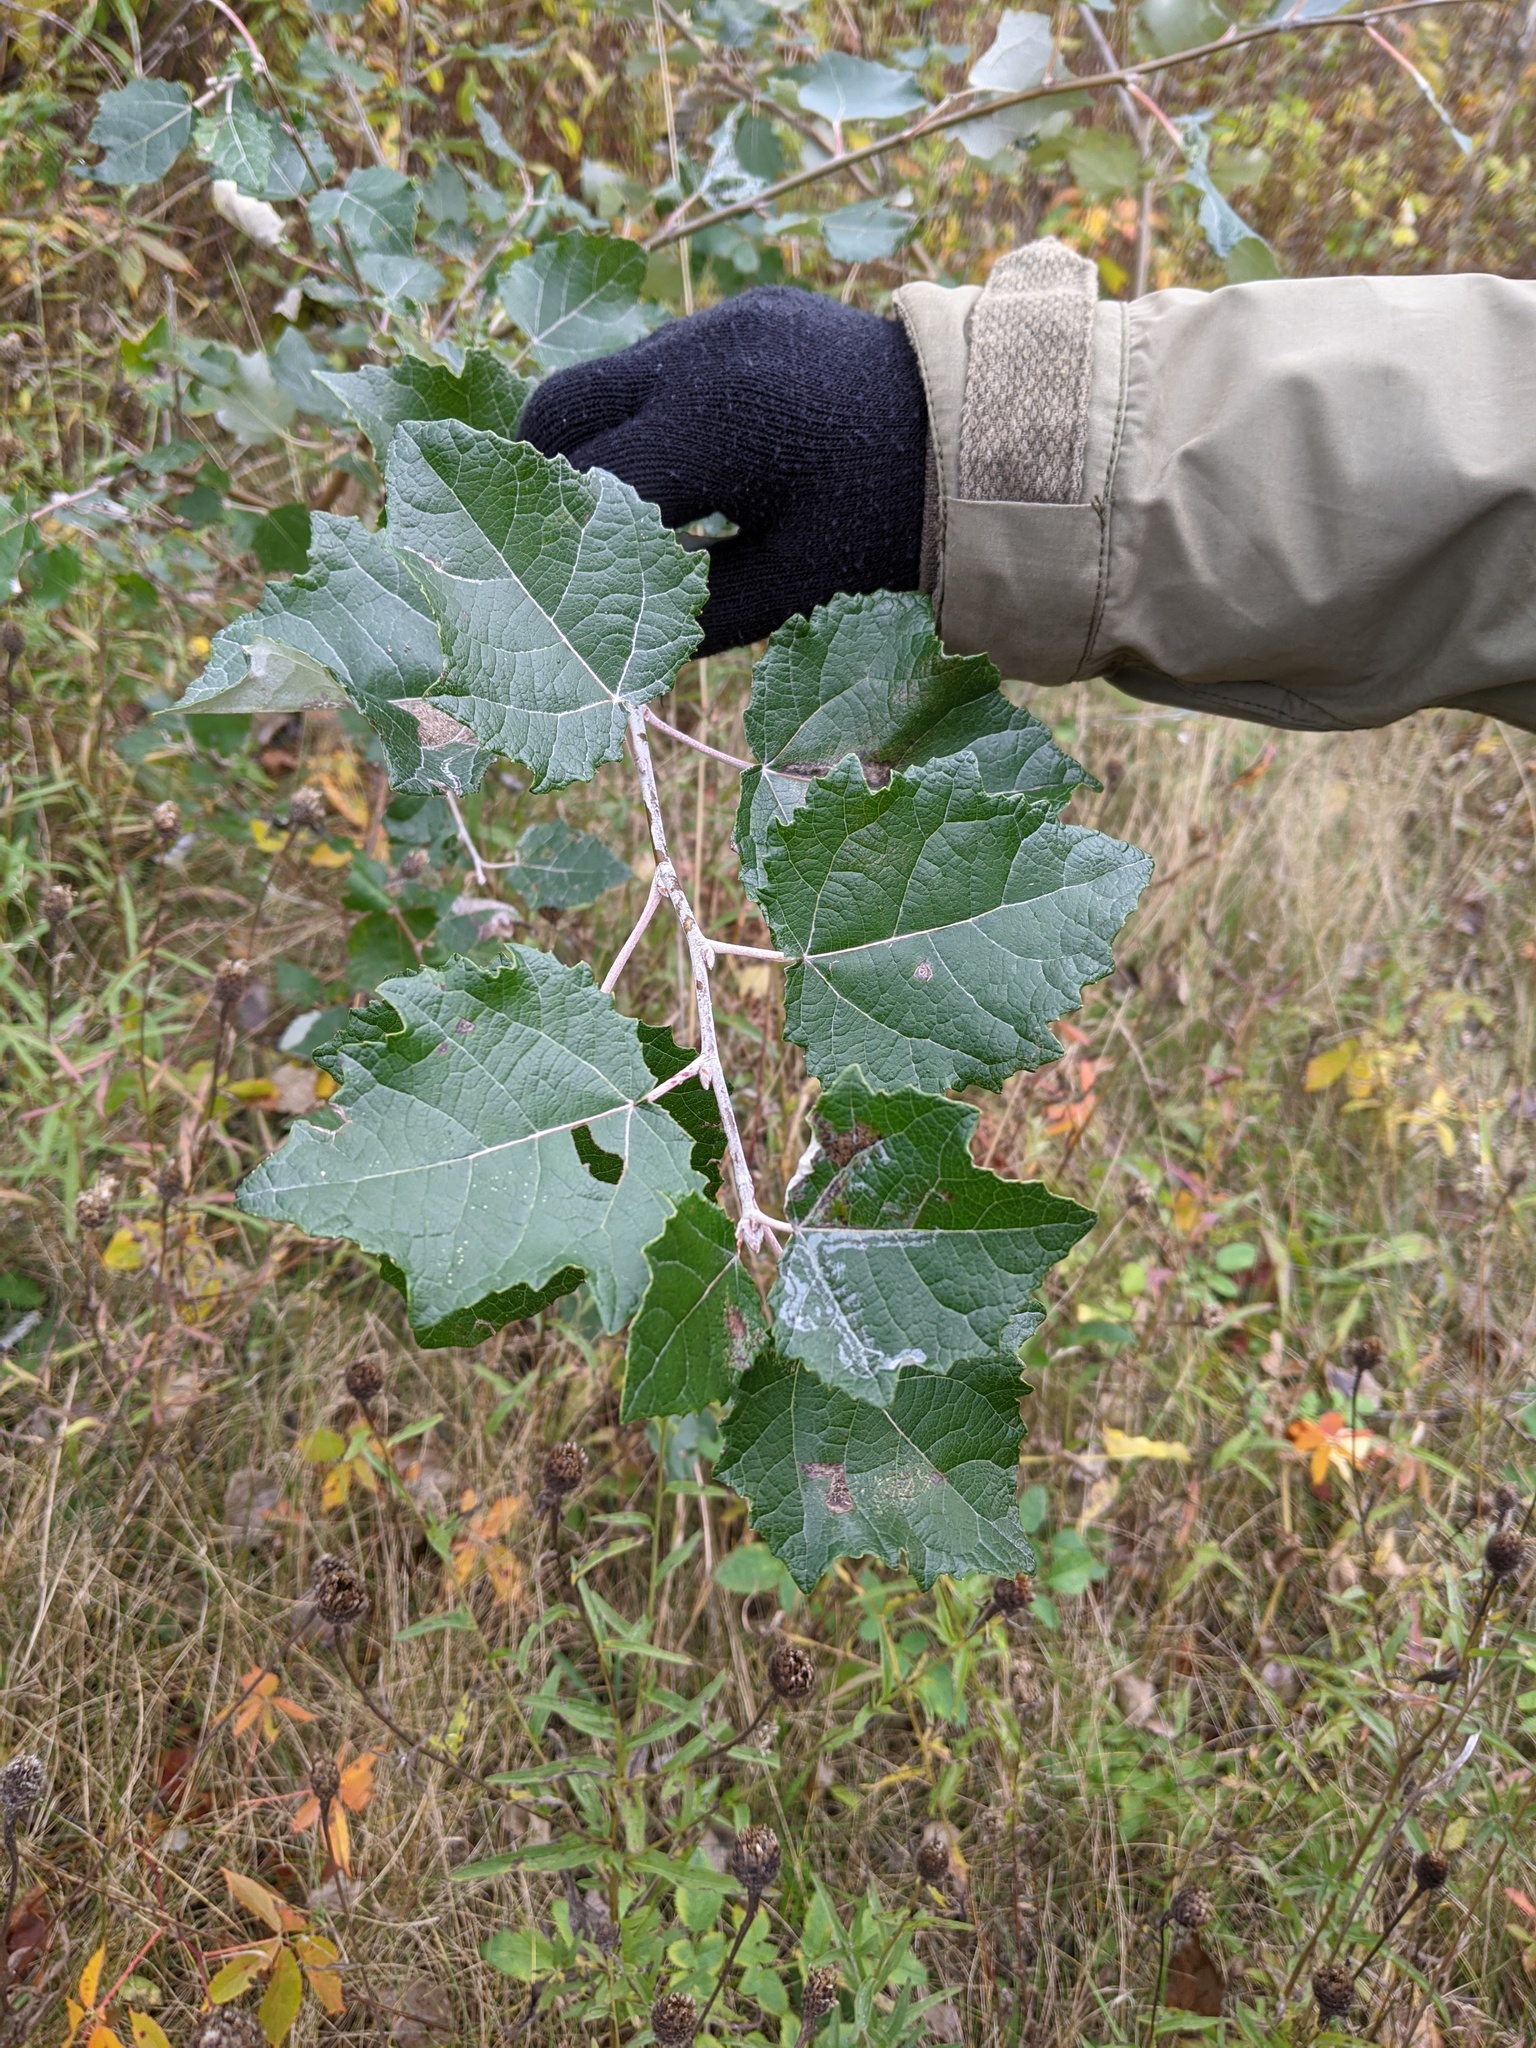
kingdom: Plantae
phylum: Tracheophyta
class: Magnoliopsida
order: Malpighiales
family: Salicaceae
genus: Populus
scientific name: Populus alba
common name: White poplar
